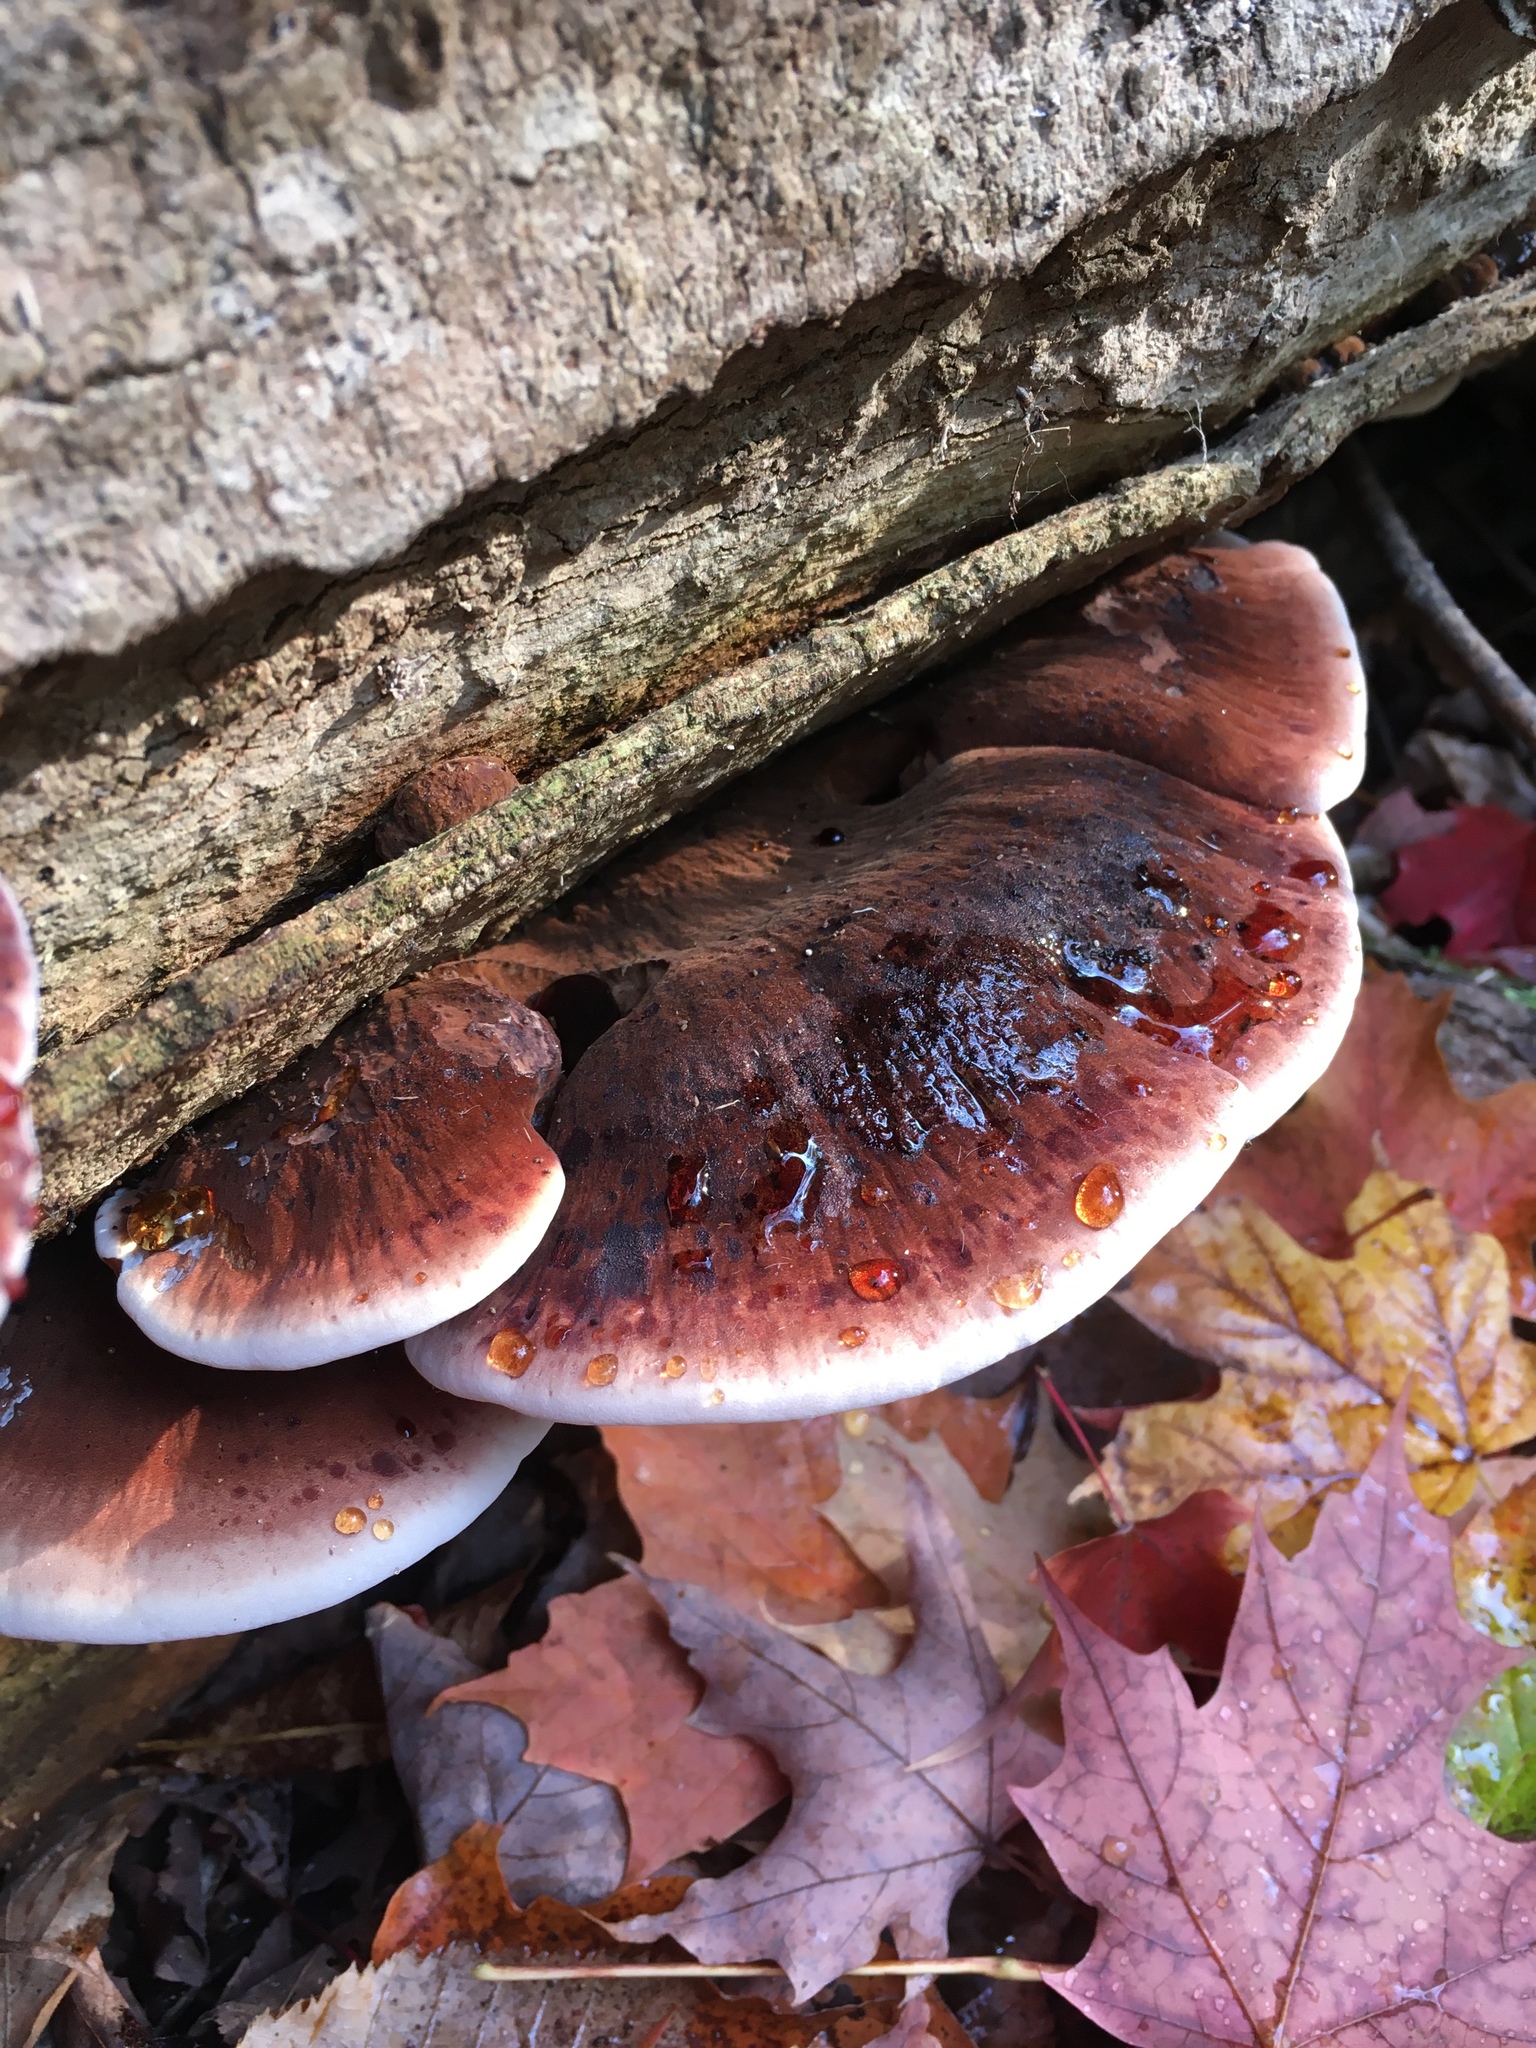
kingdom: Fungi
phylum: Basidiomycota
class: Agaricomycetes
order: Polyporales
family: Ischnodermataceae
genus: Ischnoderma
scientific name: Ischnoderma resinosum
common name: Resinous polypore
